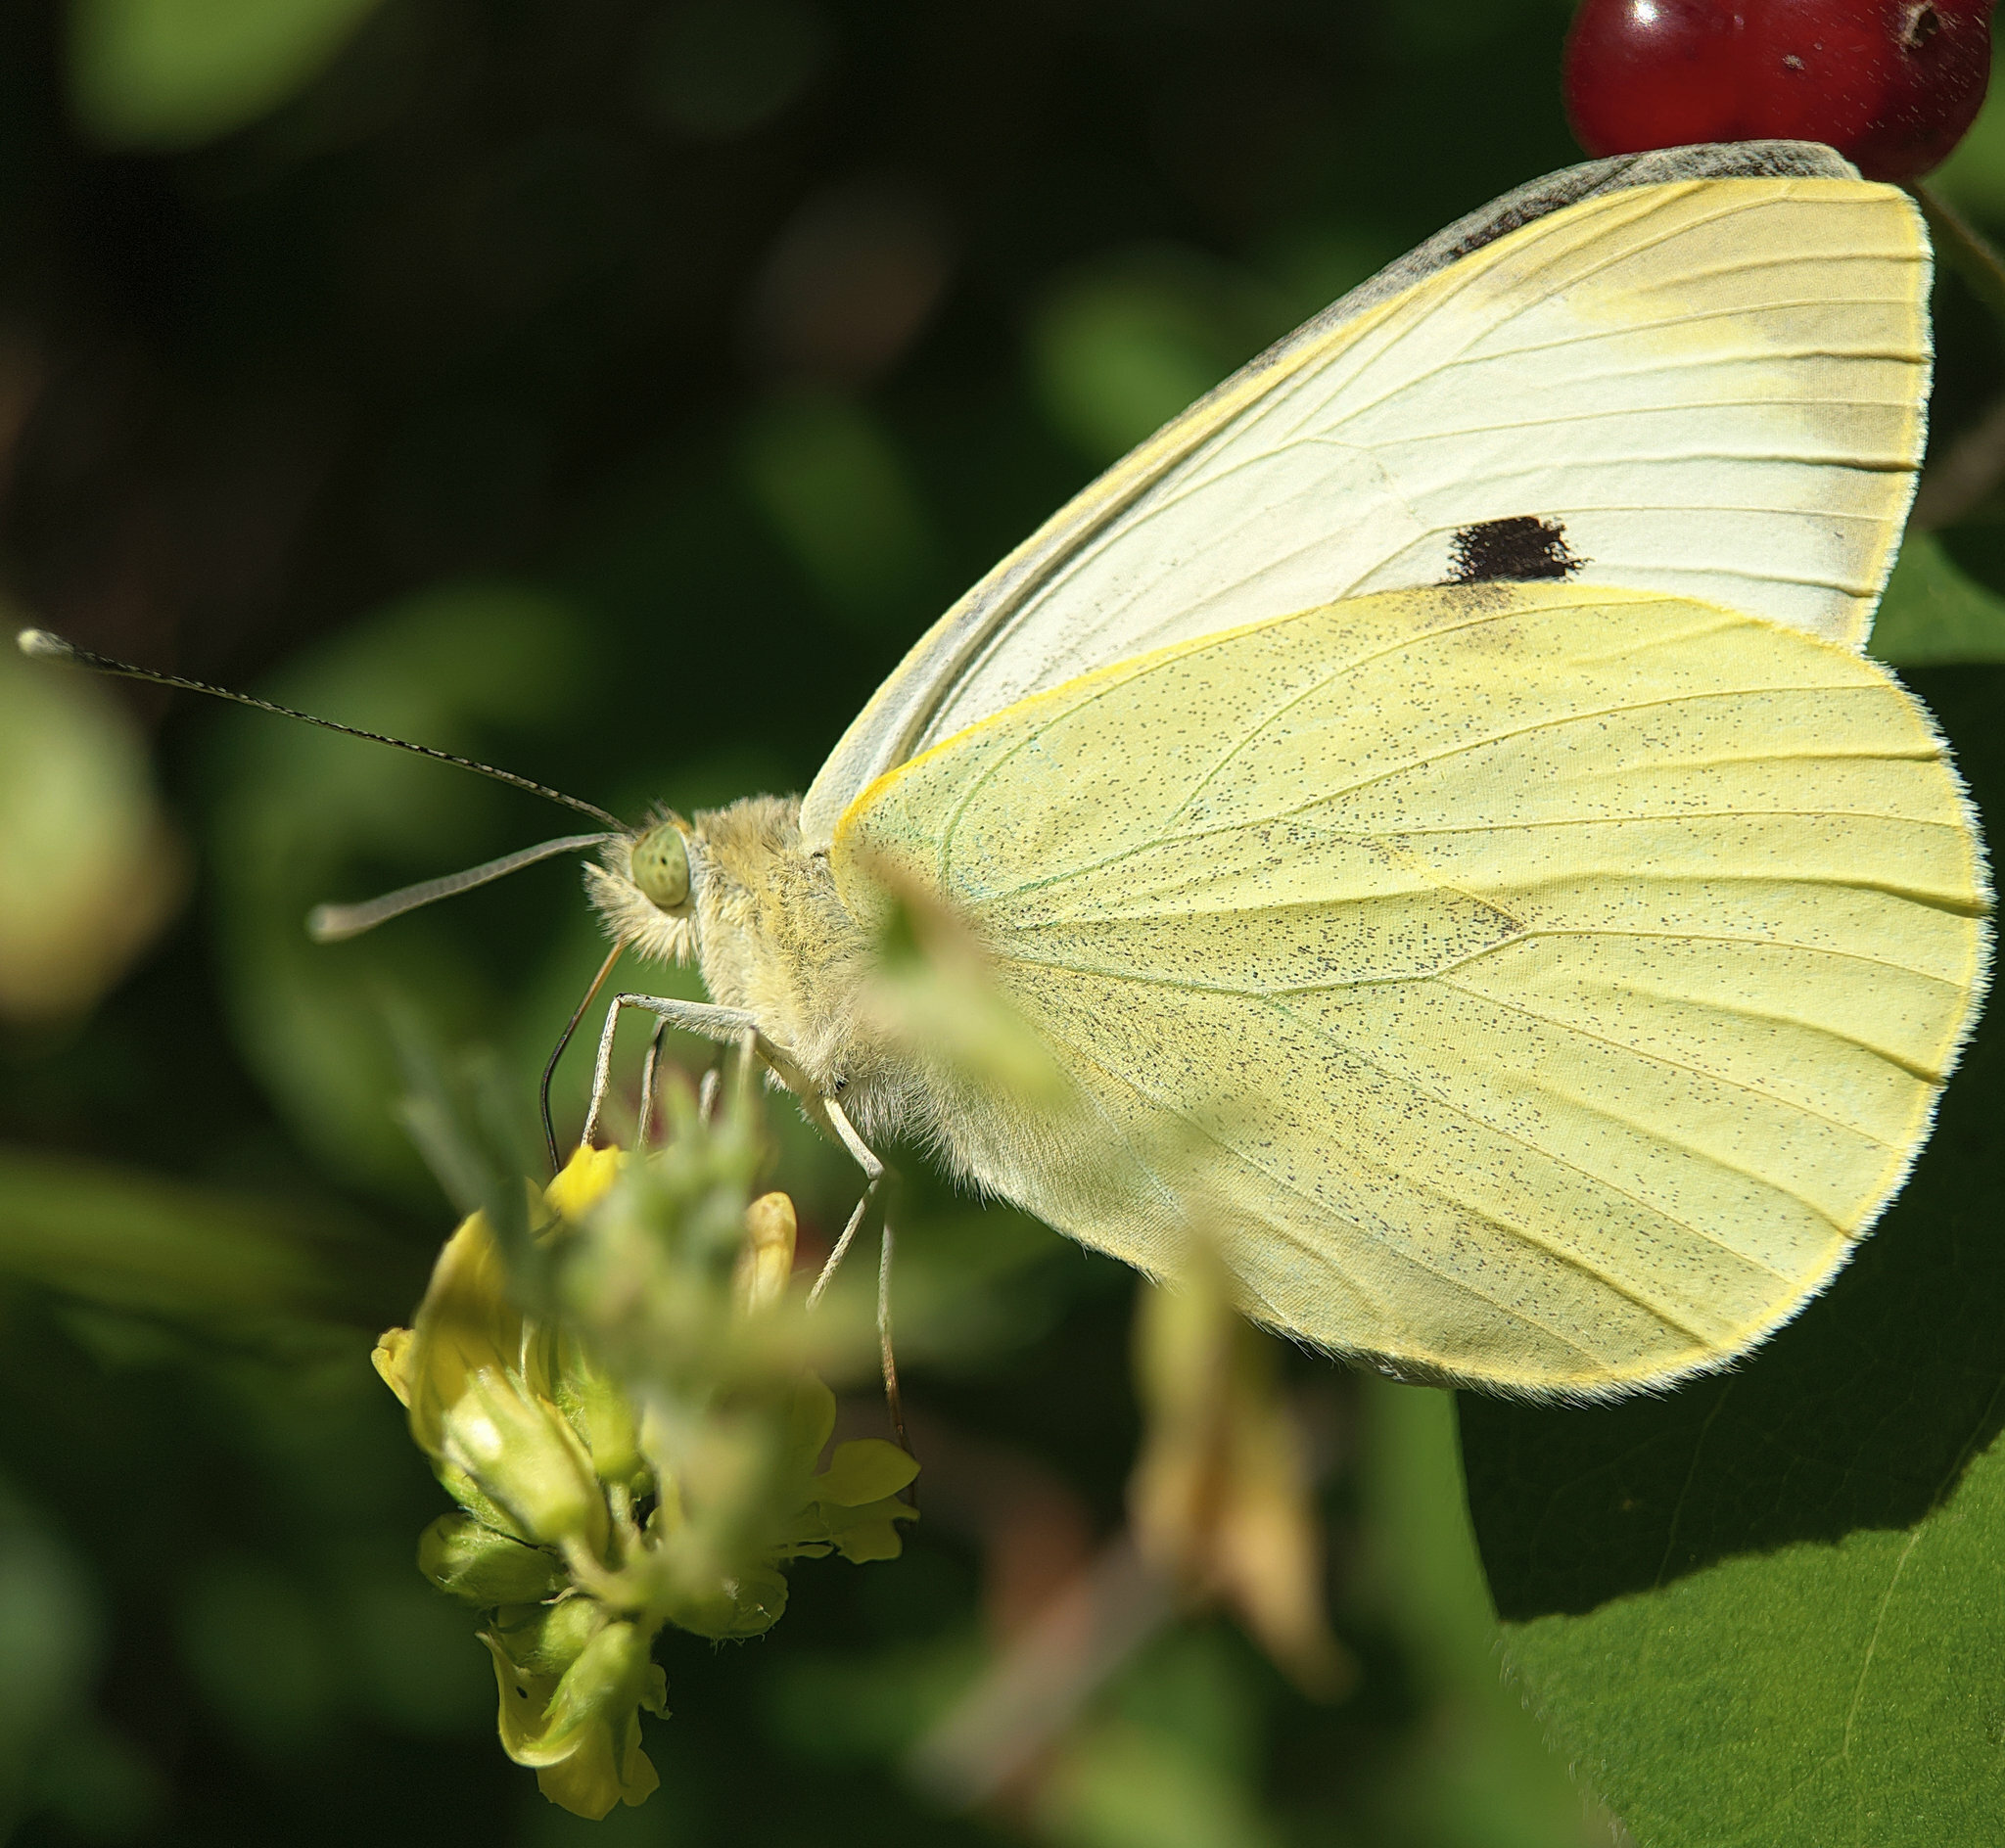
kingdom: Animalia
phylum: Arthropoda
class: Insecta
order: Lepidoptera
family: Pieridae
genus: Pieris
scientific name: Pieris brassicae
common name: Large white
